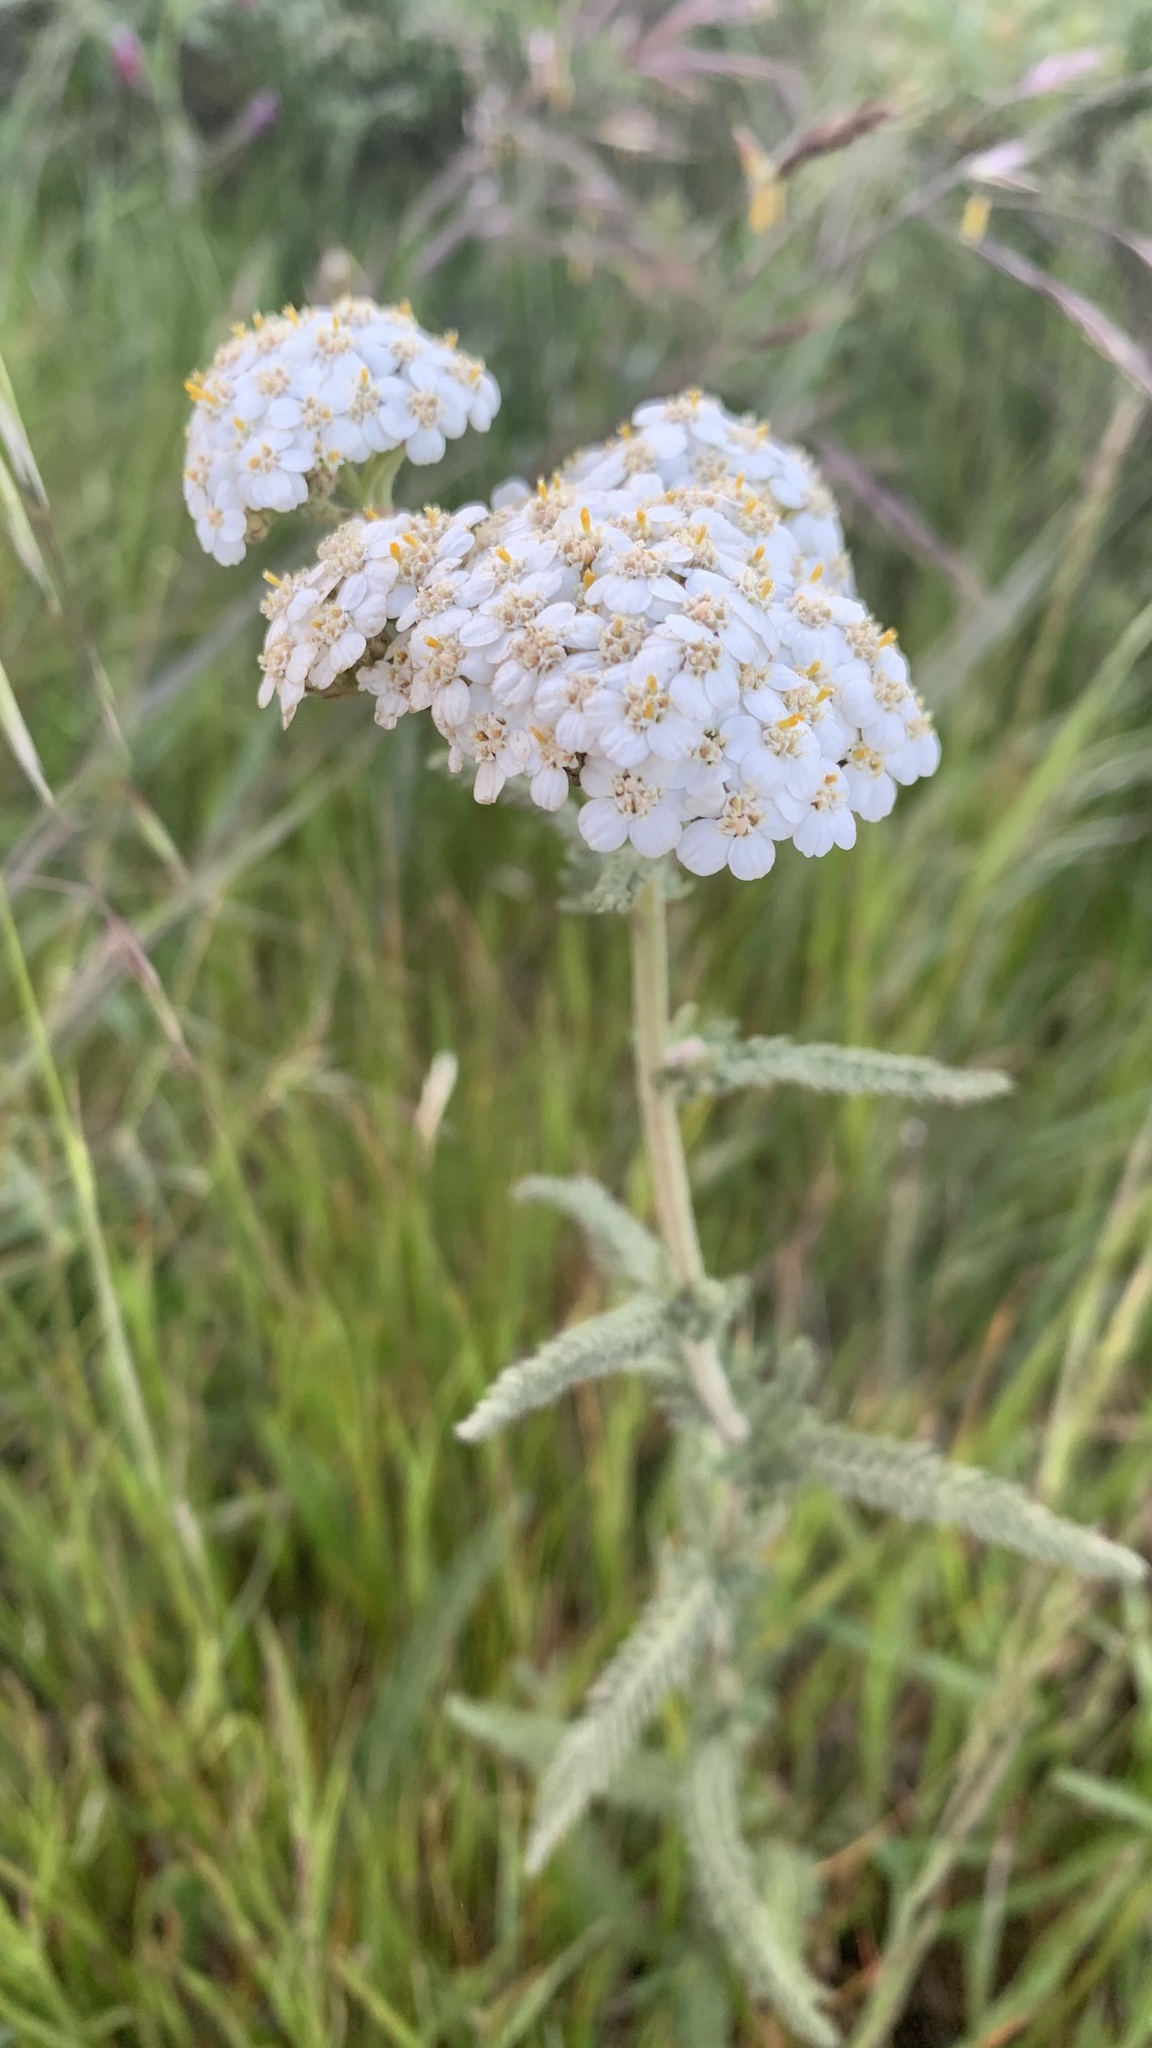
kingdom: Plantae
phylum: Tracheophyta
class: Magnoliopsida
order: Asterales
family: Asteraceae
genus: Achillea
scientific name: Achillea millefolium
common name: Yarrow
